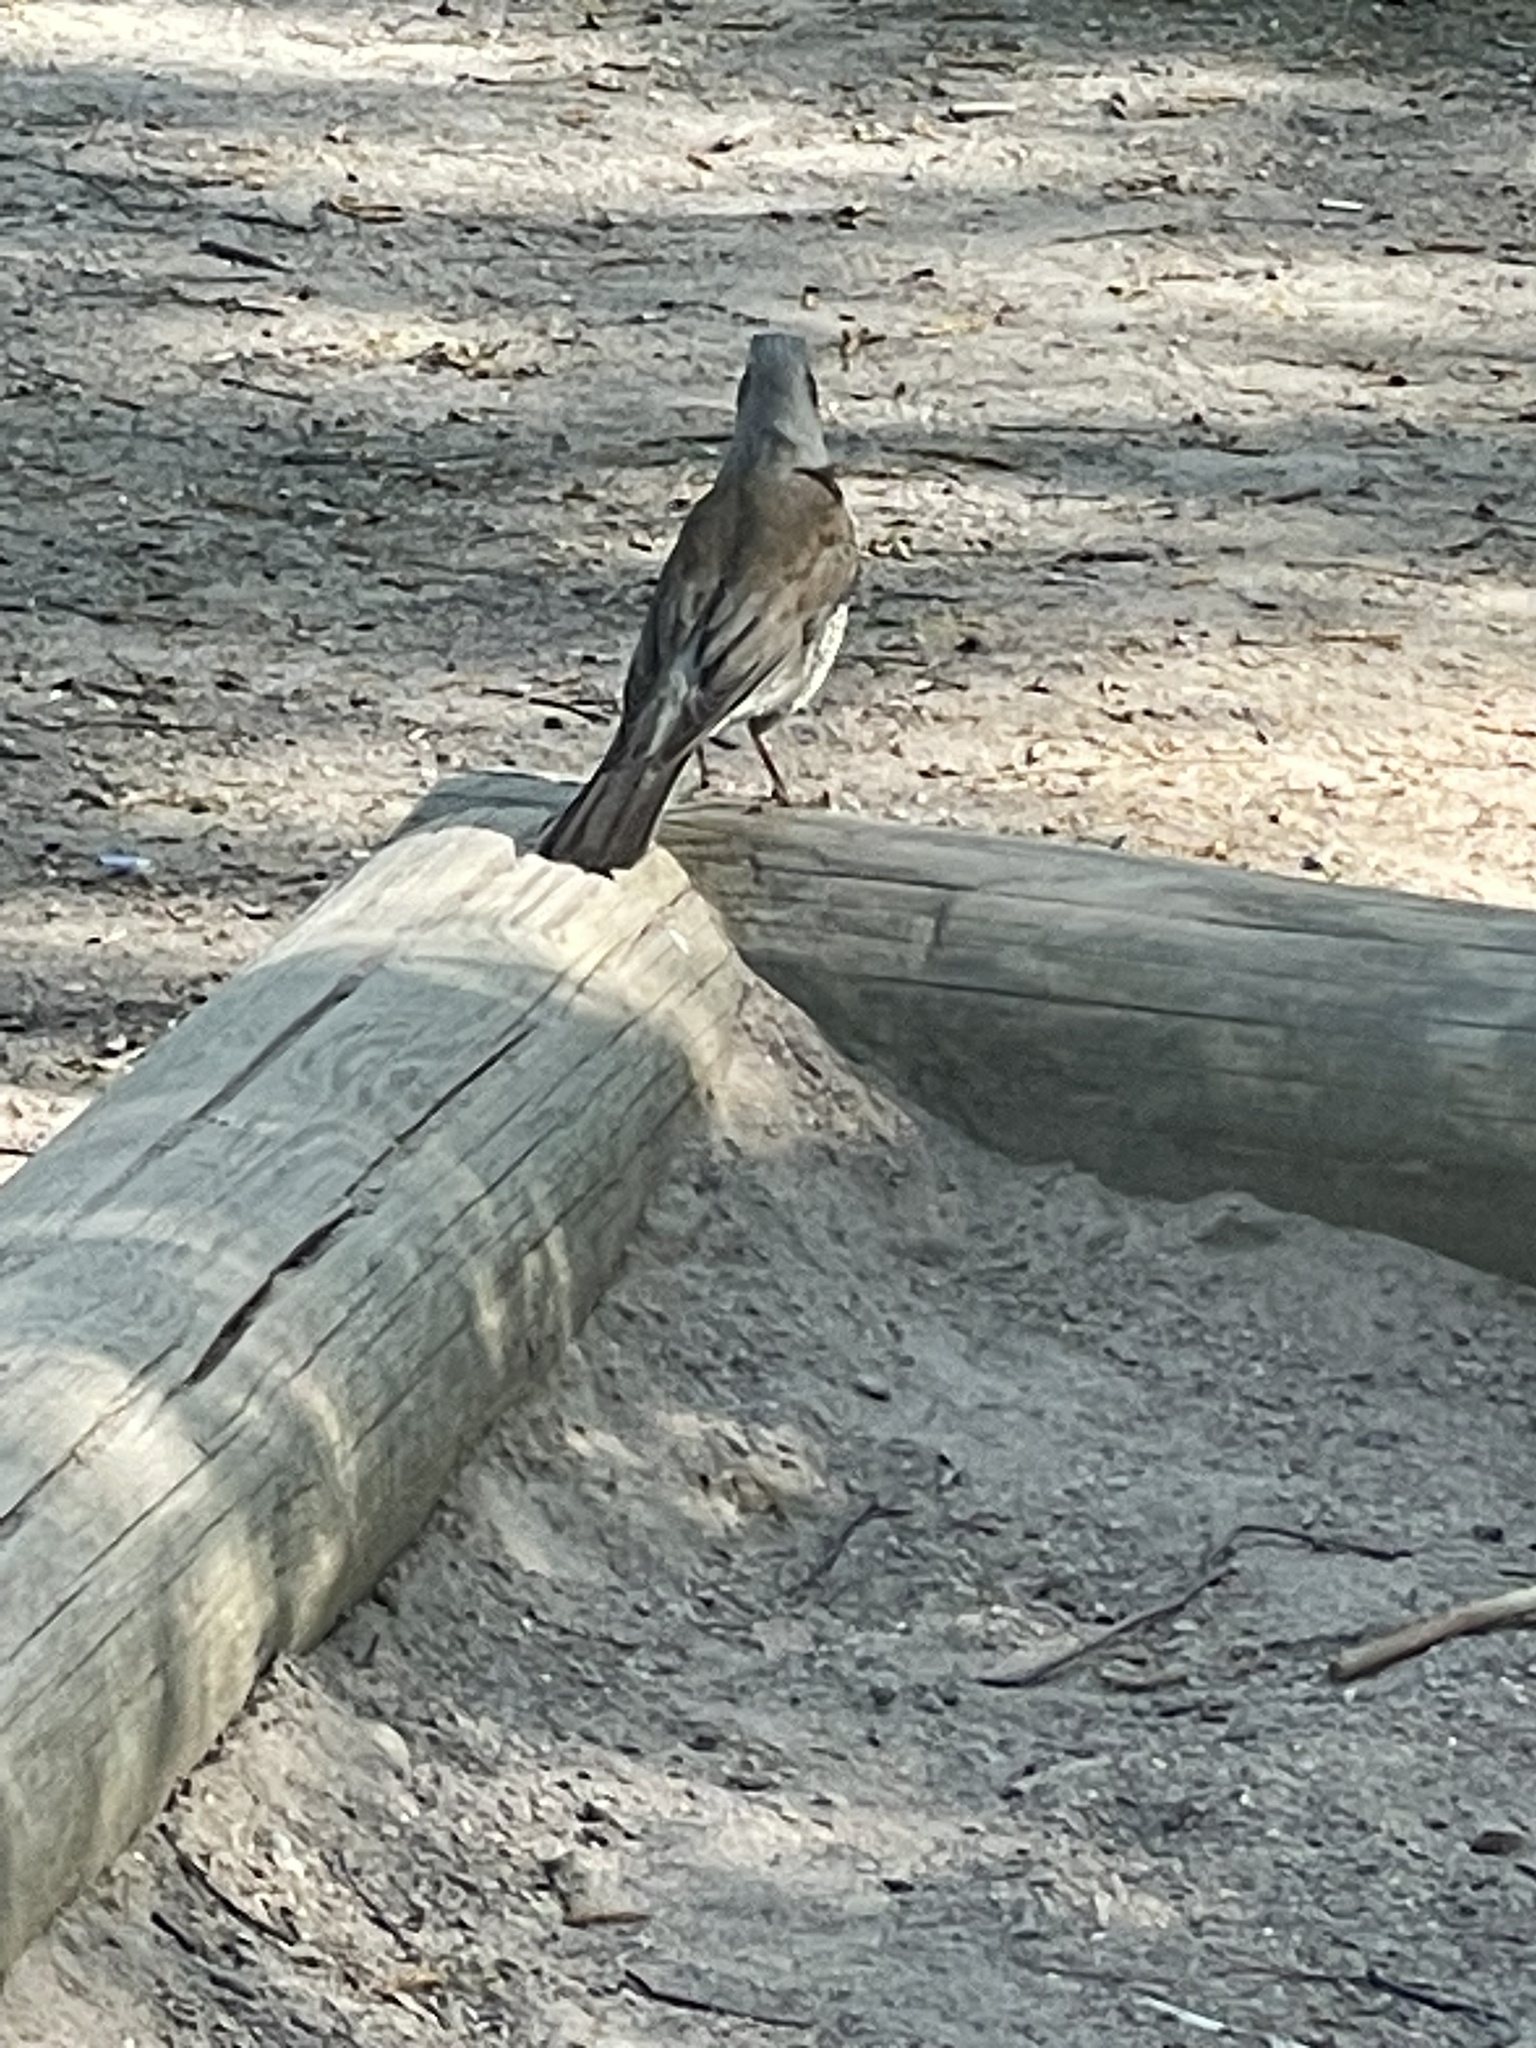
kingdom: Animalia
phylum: Chordata
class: Aves
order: Passeriformes
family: Turdidae
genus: Turdus
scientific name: Turdus pilaris
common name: Fieldfare
